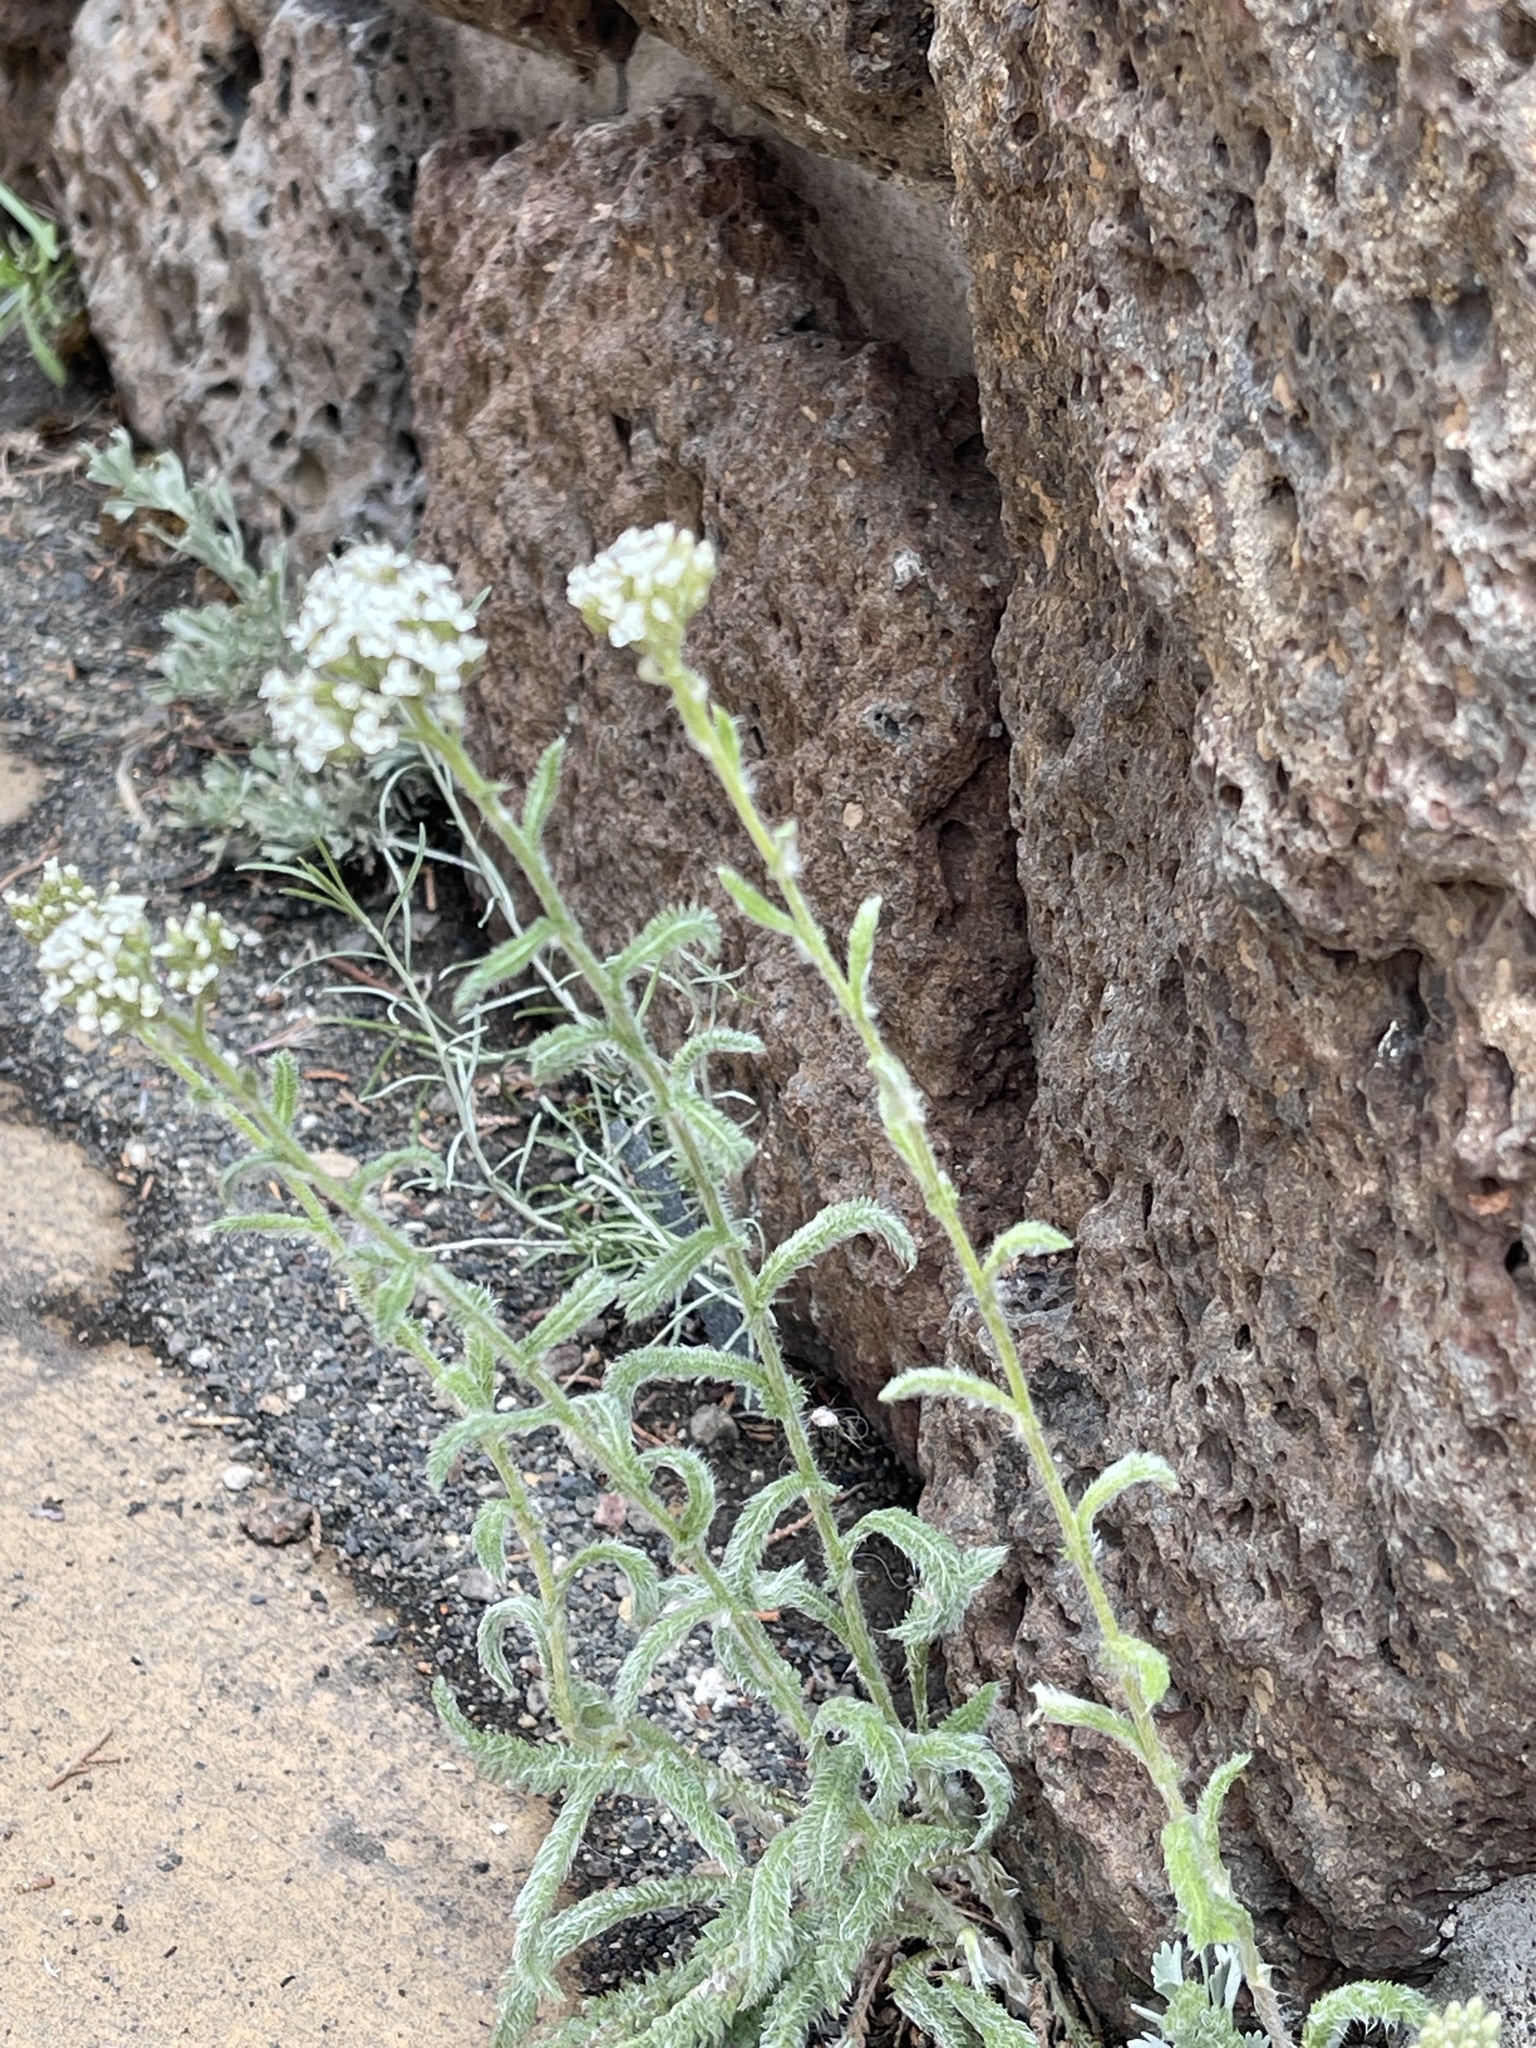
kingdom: Plantae
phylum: Tracheophyta
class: Magnoliopsida
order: Asterales
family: Asteraceae
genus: Achillea
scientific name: Achillea millefolium
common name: Yarrow
